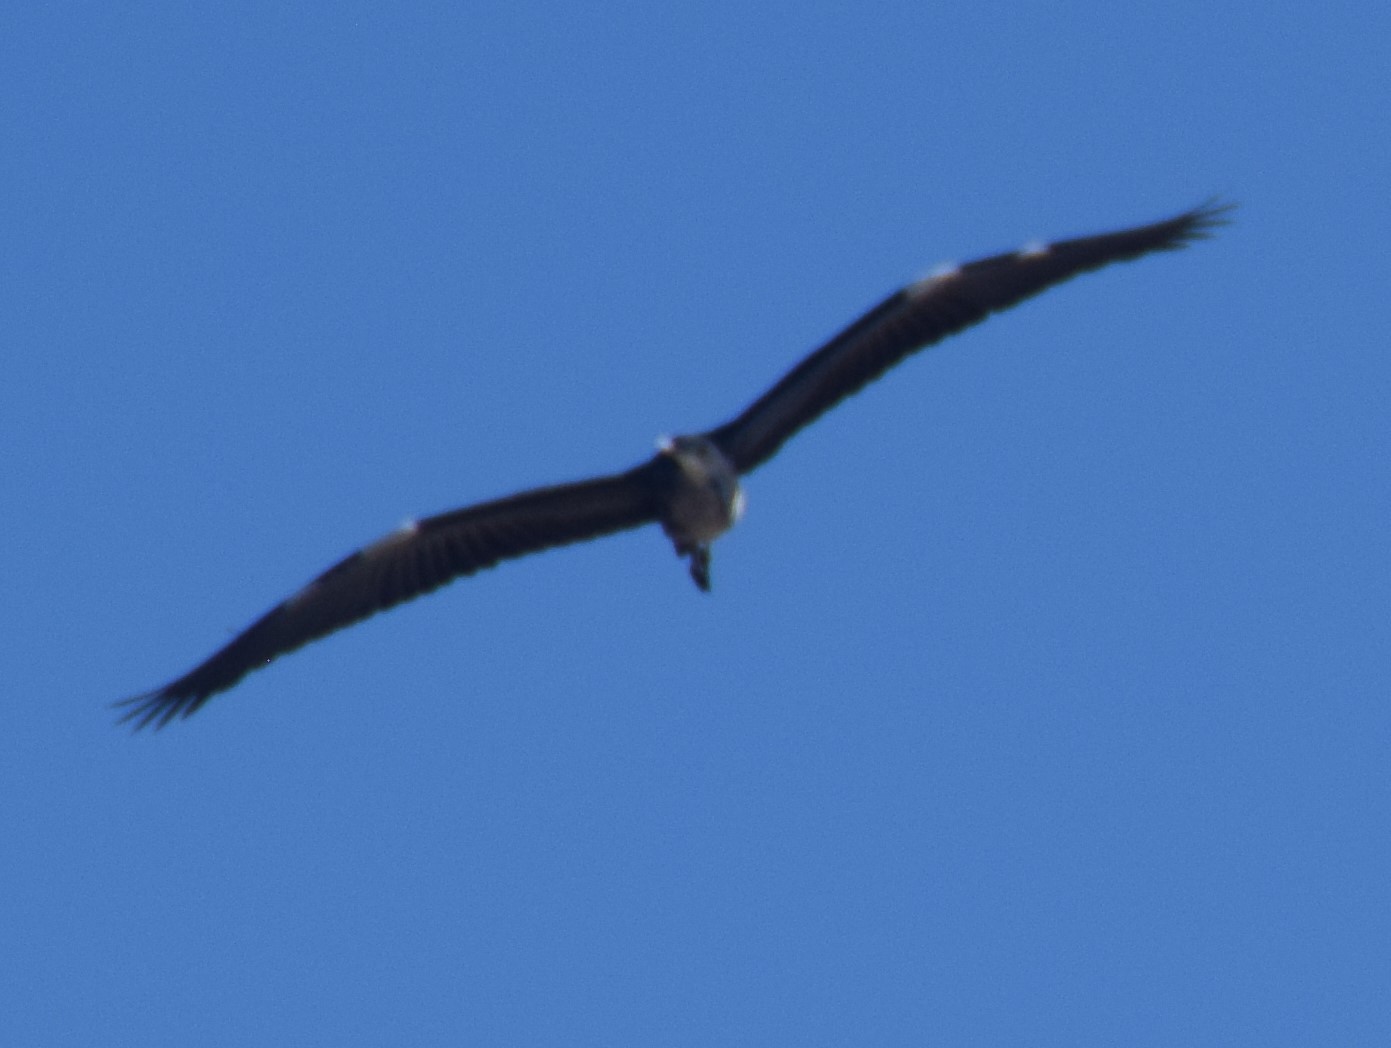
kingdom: Animalia
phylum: Chordata
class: Aves
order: Pelecaniformes
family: Ardeidae
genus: Ardea
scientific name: Ardea pacifica
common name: White-necked heron
